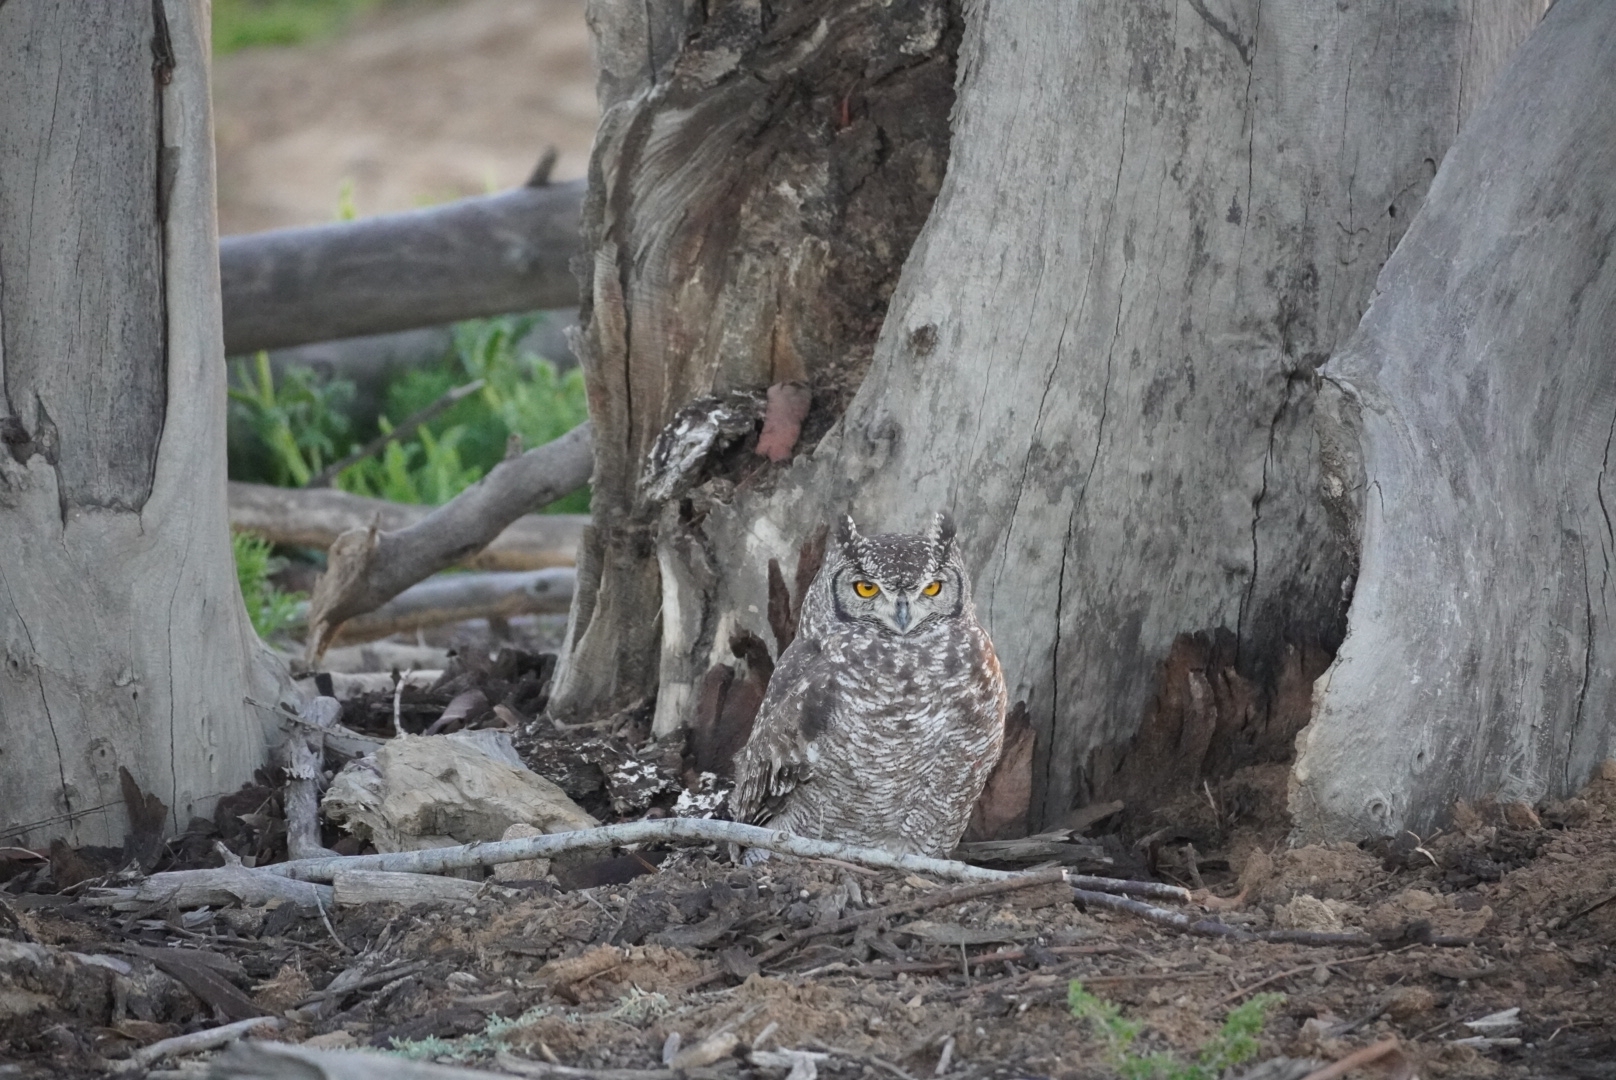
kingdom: Animalia
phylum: Chordata
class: Aves
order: Strigiformes
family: Strigidae
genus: Bubo
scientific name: Bubo africanus
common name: Spotted eagle-owl
